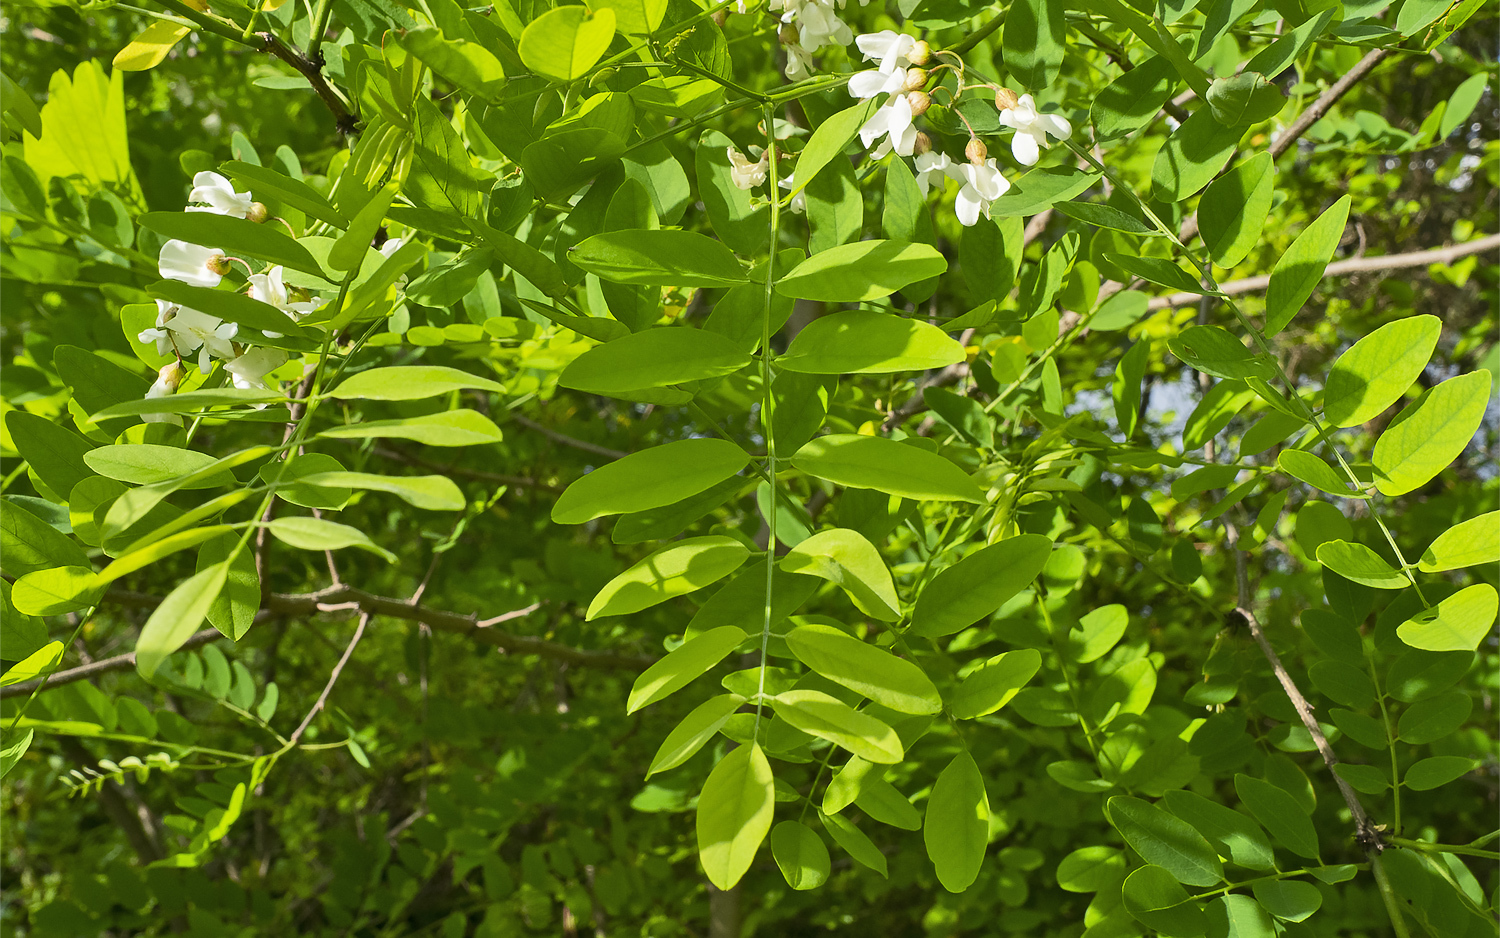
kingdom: Plantae
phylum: Tracheophyta
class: Magnoliopsida
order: Fabales
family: Fabaceae
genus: Robinia
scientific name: Robinia pseudoacacia
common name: Black locust
